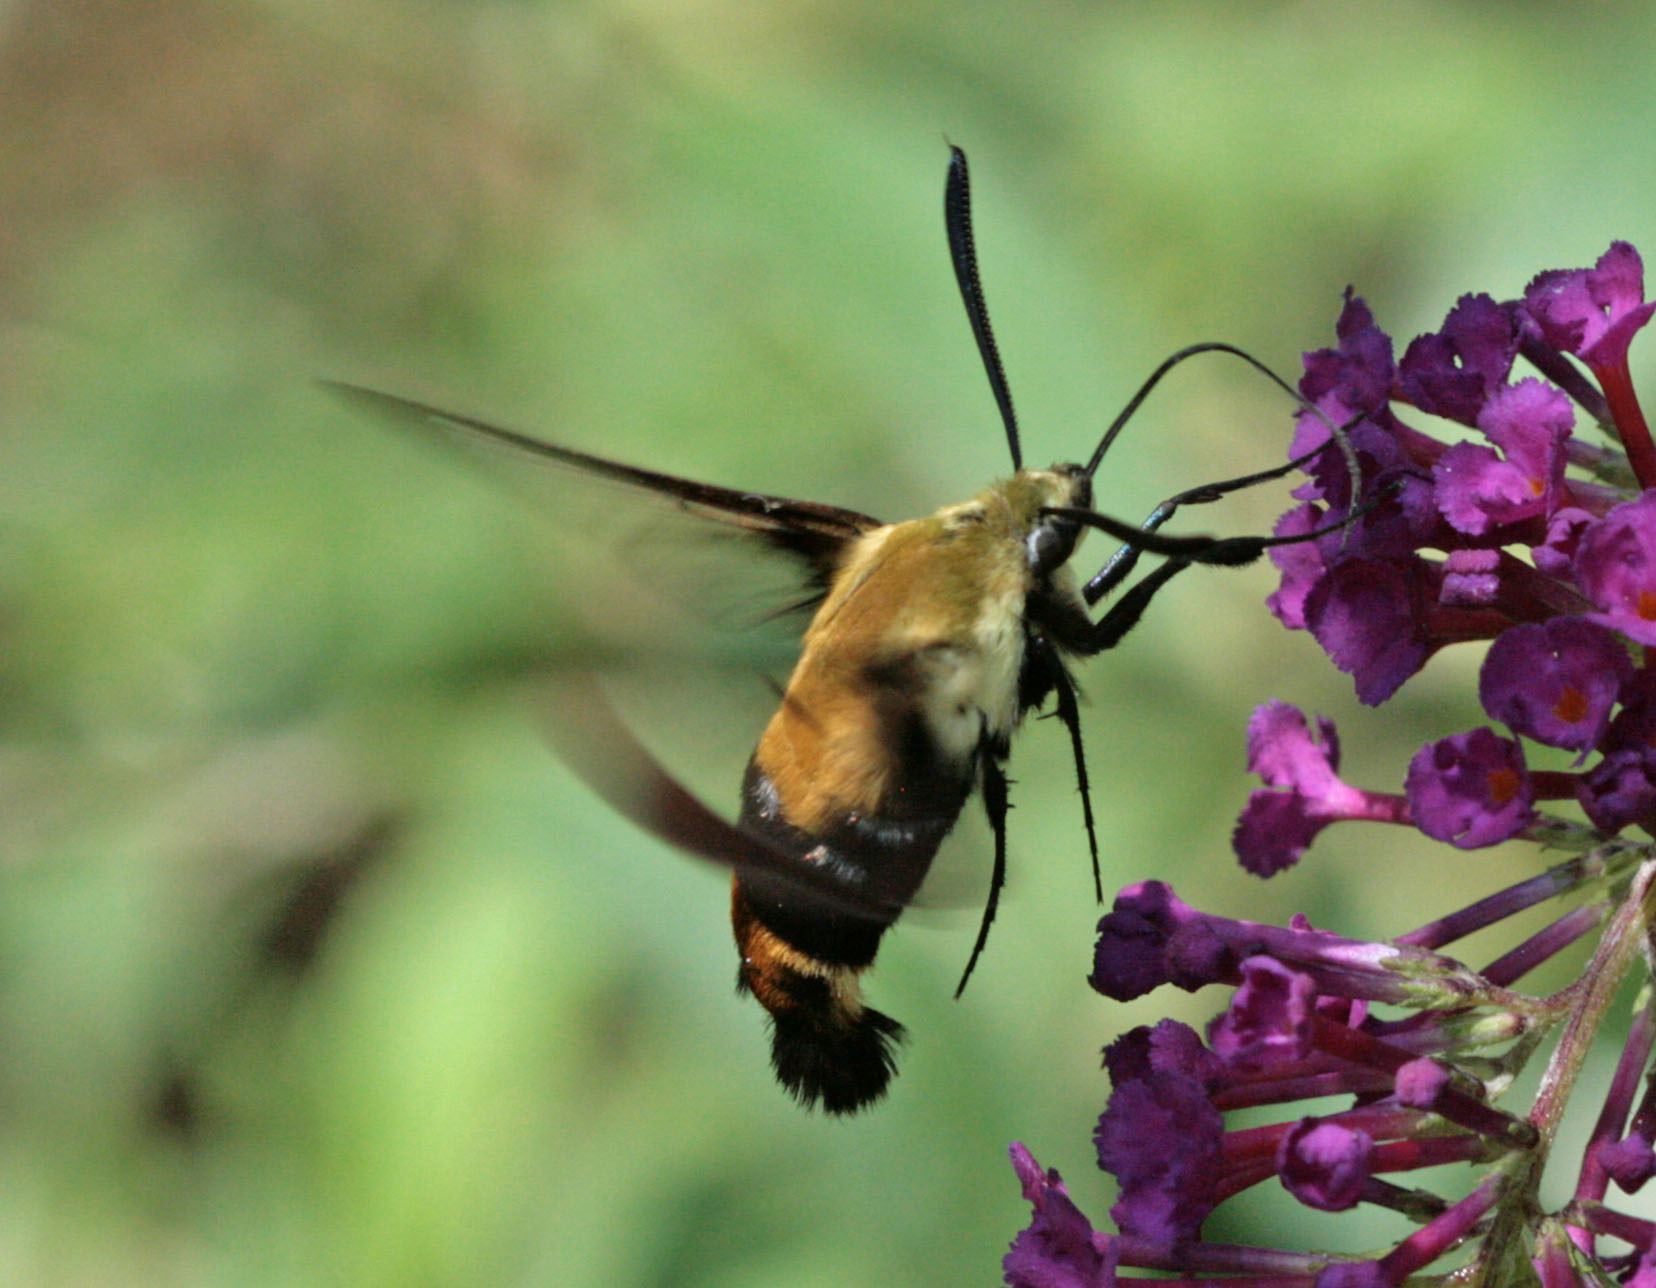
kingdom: Animalia
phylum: Arthropoda
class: Insecta
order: Lepidoptera
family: Sphingidae
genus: Hemaris
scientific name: Hemaris diffinis
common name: Bumblebee moth
